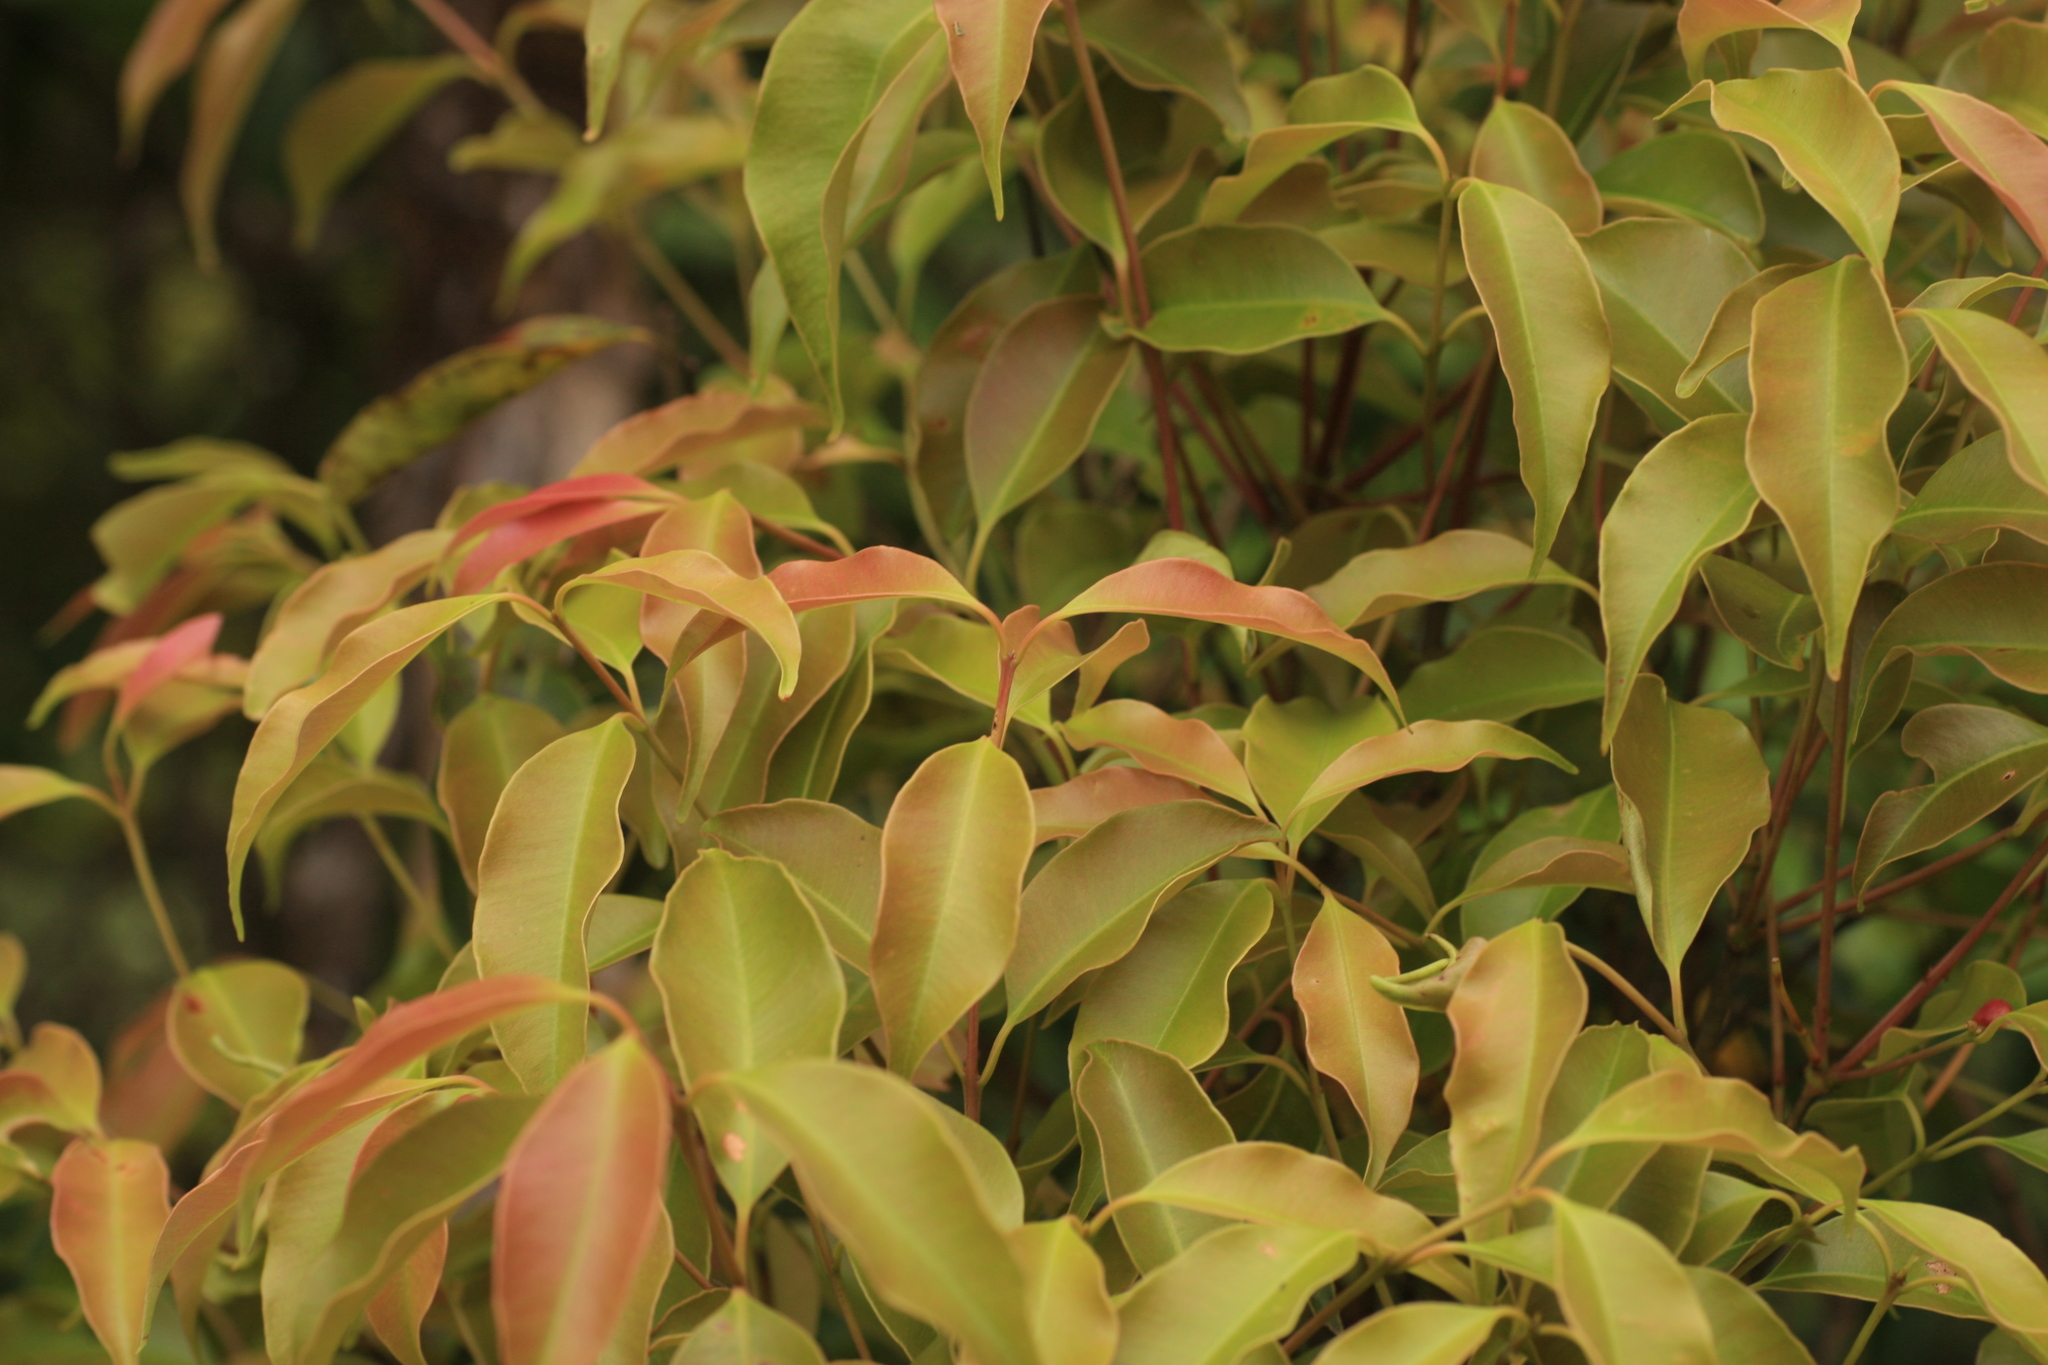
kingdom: Plantae
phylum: Tracheophyta
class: Magnoliopsida
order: Myrtales
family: Myrtaceae
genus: Syzygium
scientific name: Syzygium densiflorum
